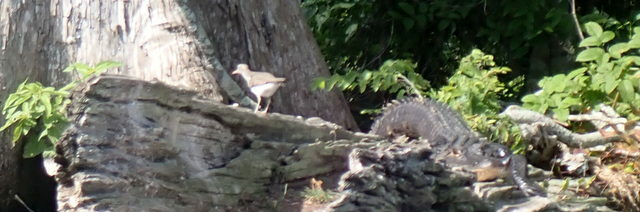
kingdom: Animalia
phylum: Chordata
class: Aves
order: Charadriiformes
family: Scolopacidae
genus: Actitis
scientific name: Actitis macularius
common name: Spotted sandpiper
